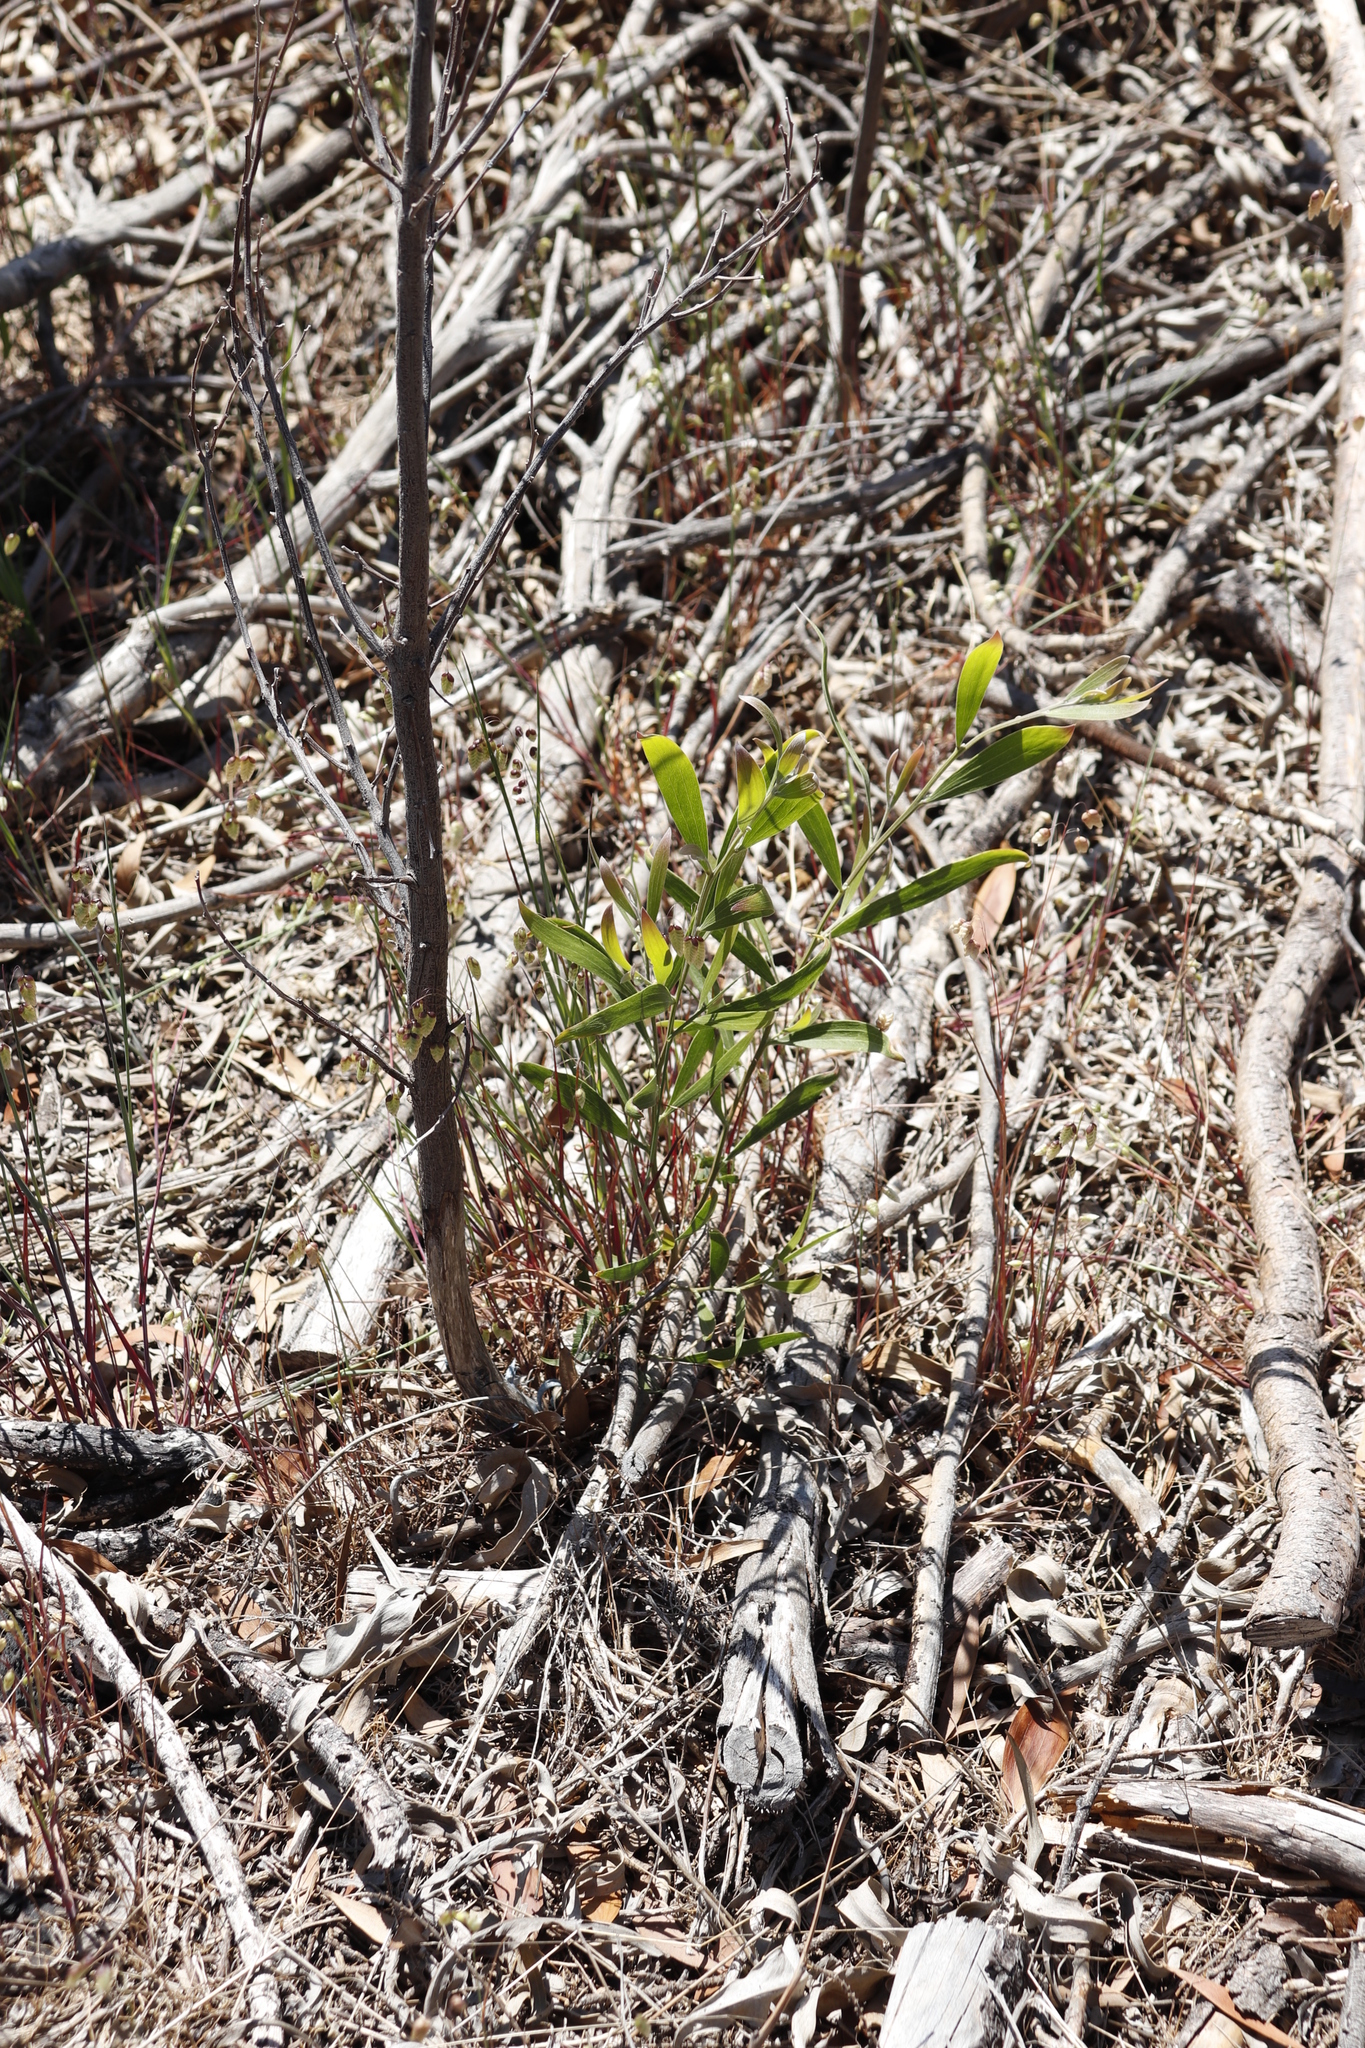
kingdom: Plantae
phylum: Tracheophyta
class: Magnoliopsida
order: Fabales
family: Fabaceae
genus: Acacia
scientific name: Acacia melanoxylon
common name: Blackwood
